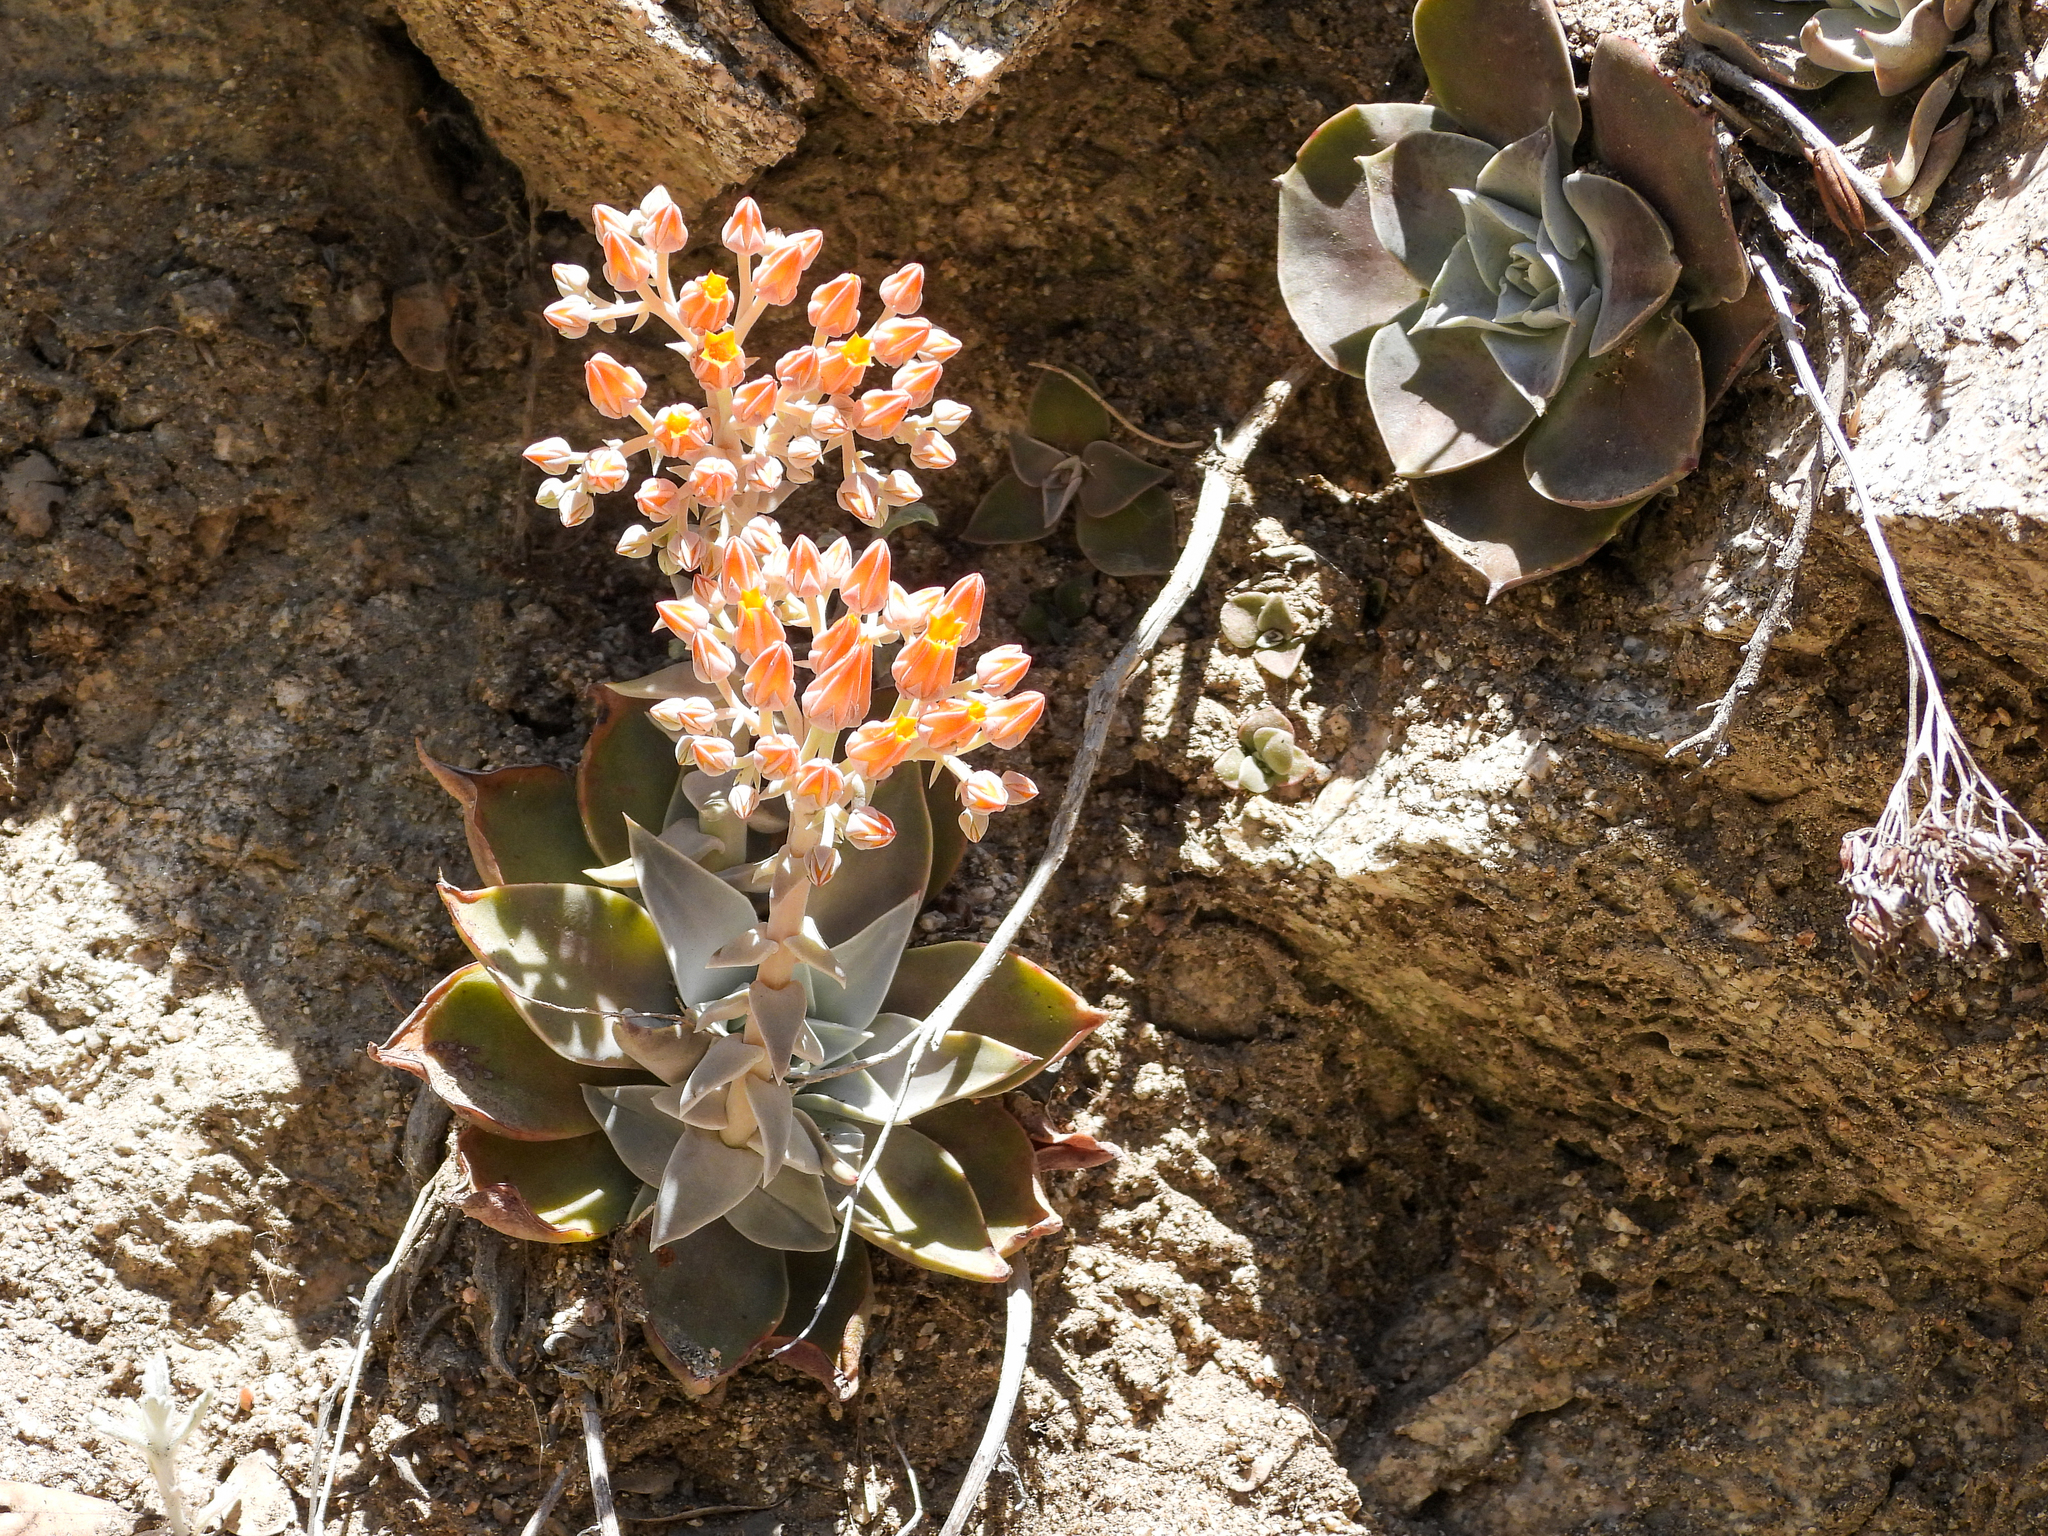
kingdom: Plantae
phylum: Tracheophyta
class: Magnoliopsida
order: Saxifragales
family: Crassulaceae
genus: Dudleya
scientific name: Dudleya cymosa
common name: Canyon dudleya
